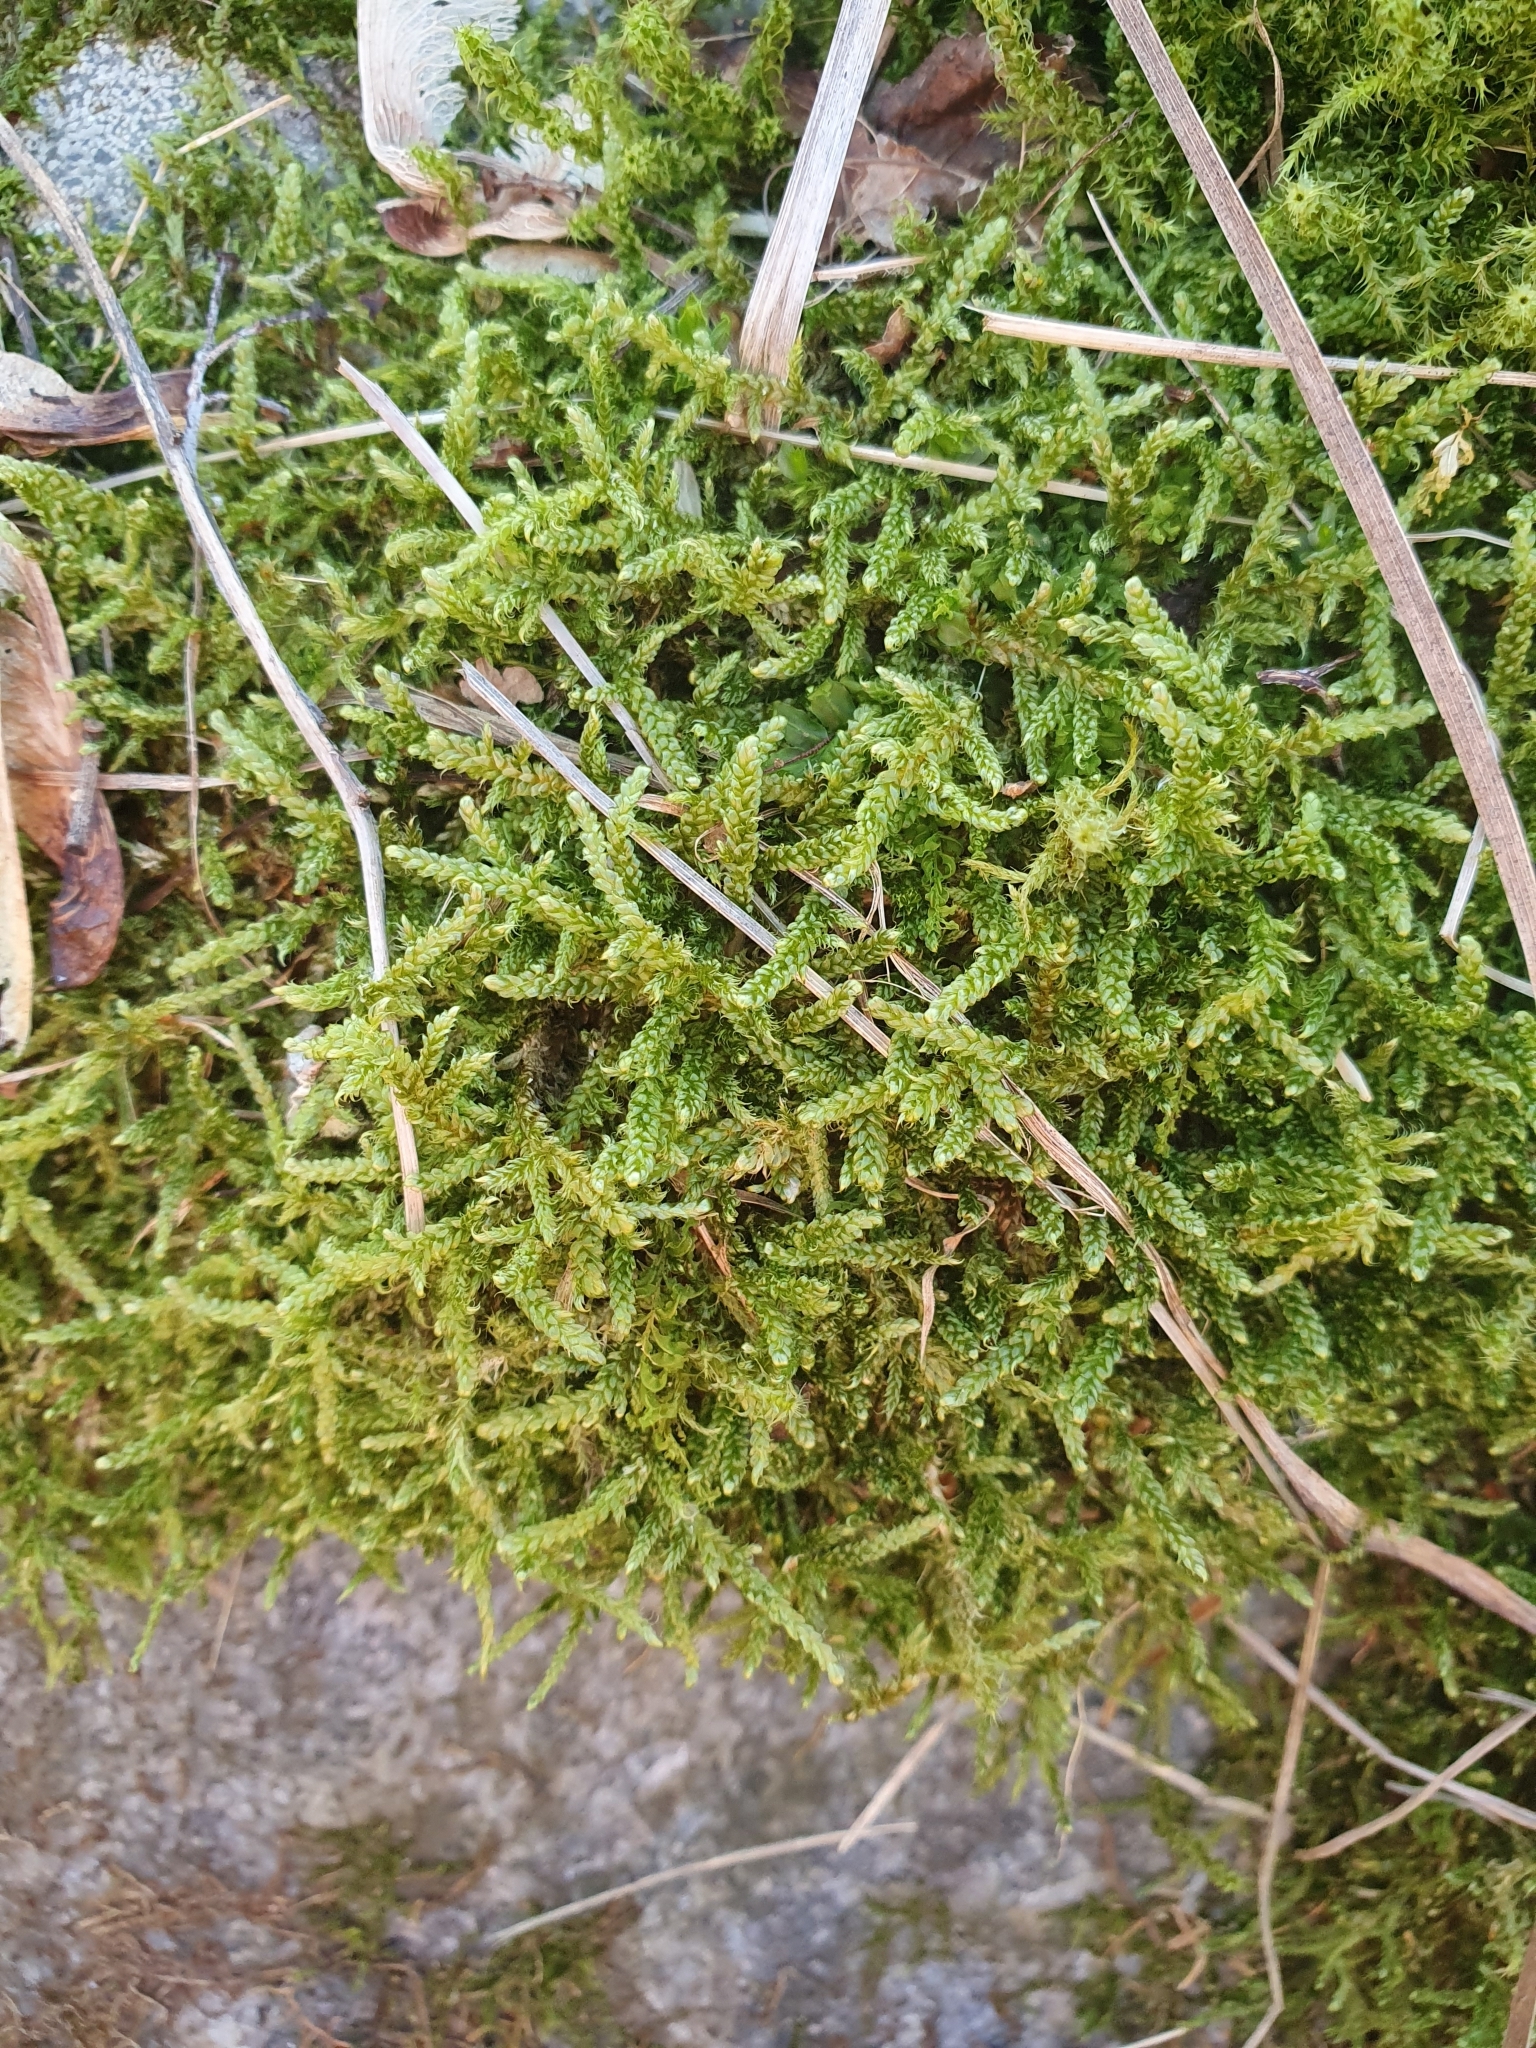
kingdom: Plantae
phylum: Bryophyta
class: Bryopsida
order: Hypnales
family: Hypnaceae
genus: Hypnum
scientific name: Hypnum cupressiforme
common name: Cypress-leaved plait-moss
